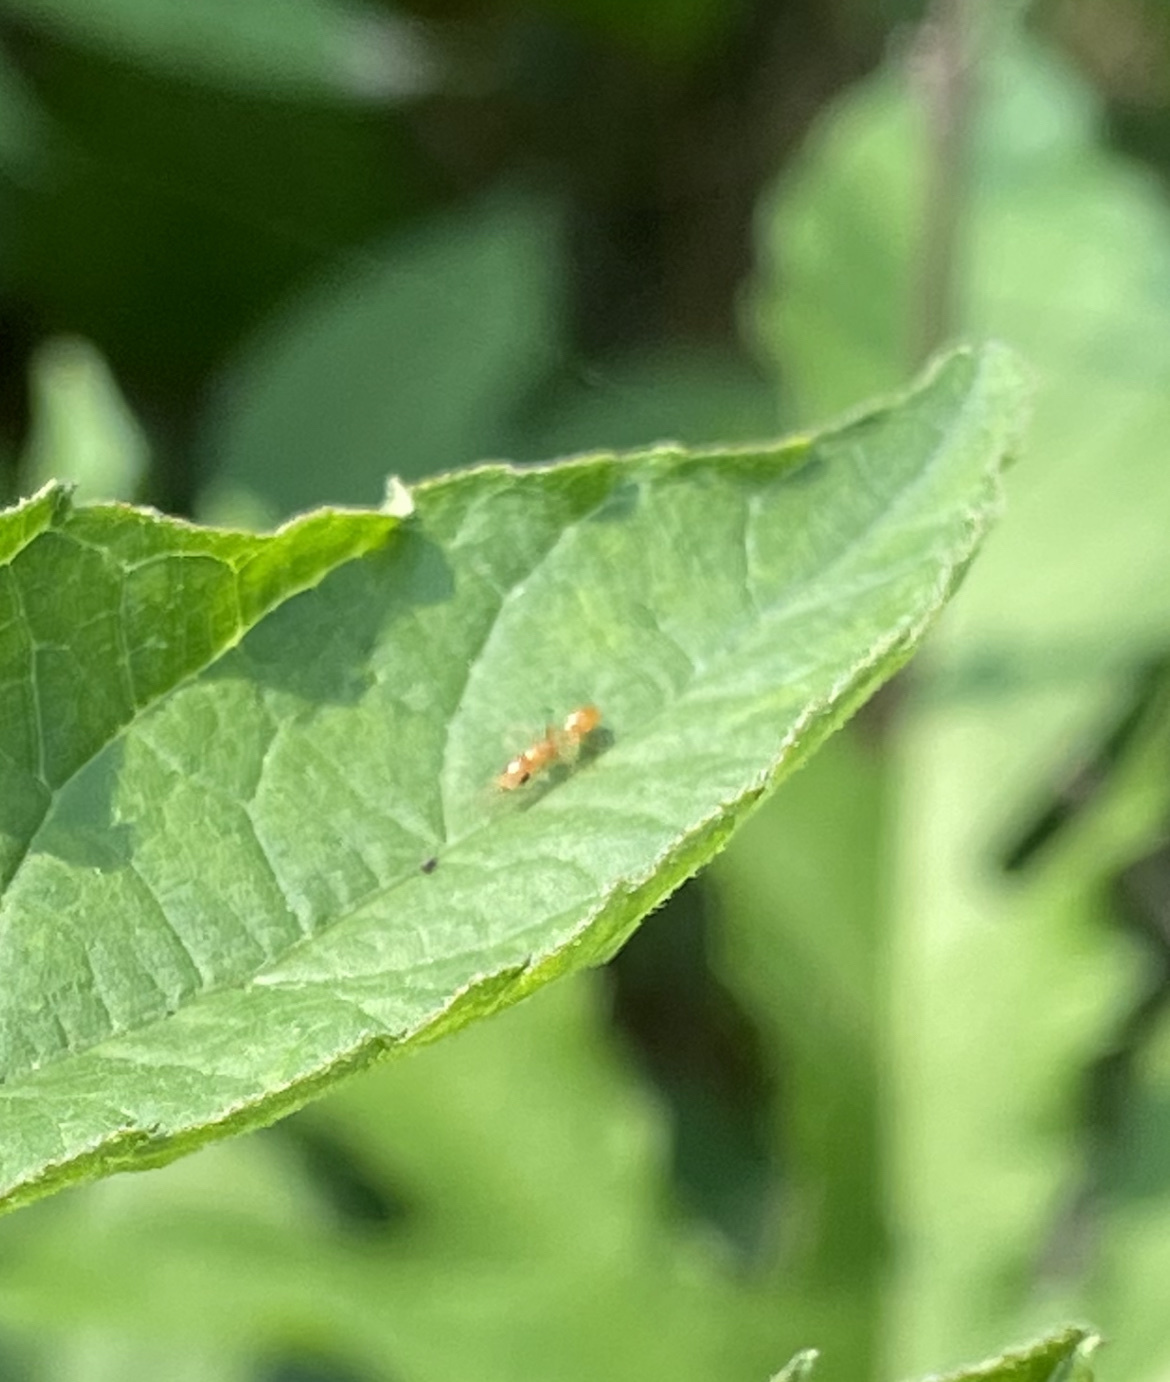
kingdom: Animalia
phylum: Arthropoda
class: Insecta
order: Hymenoptera
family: Formicidae
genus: Pseudomyrmex
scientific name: Pseudomyrmex pallidus
